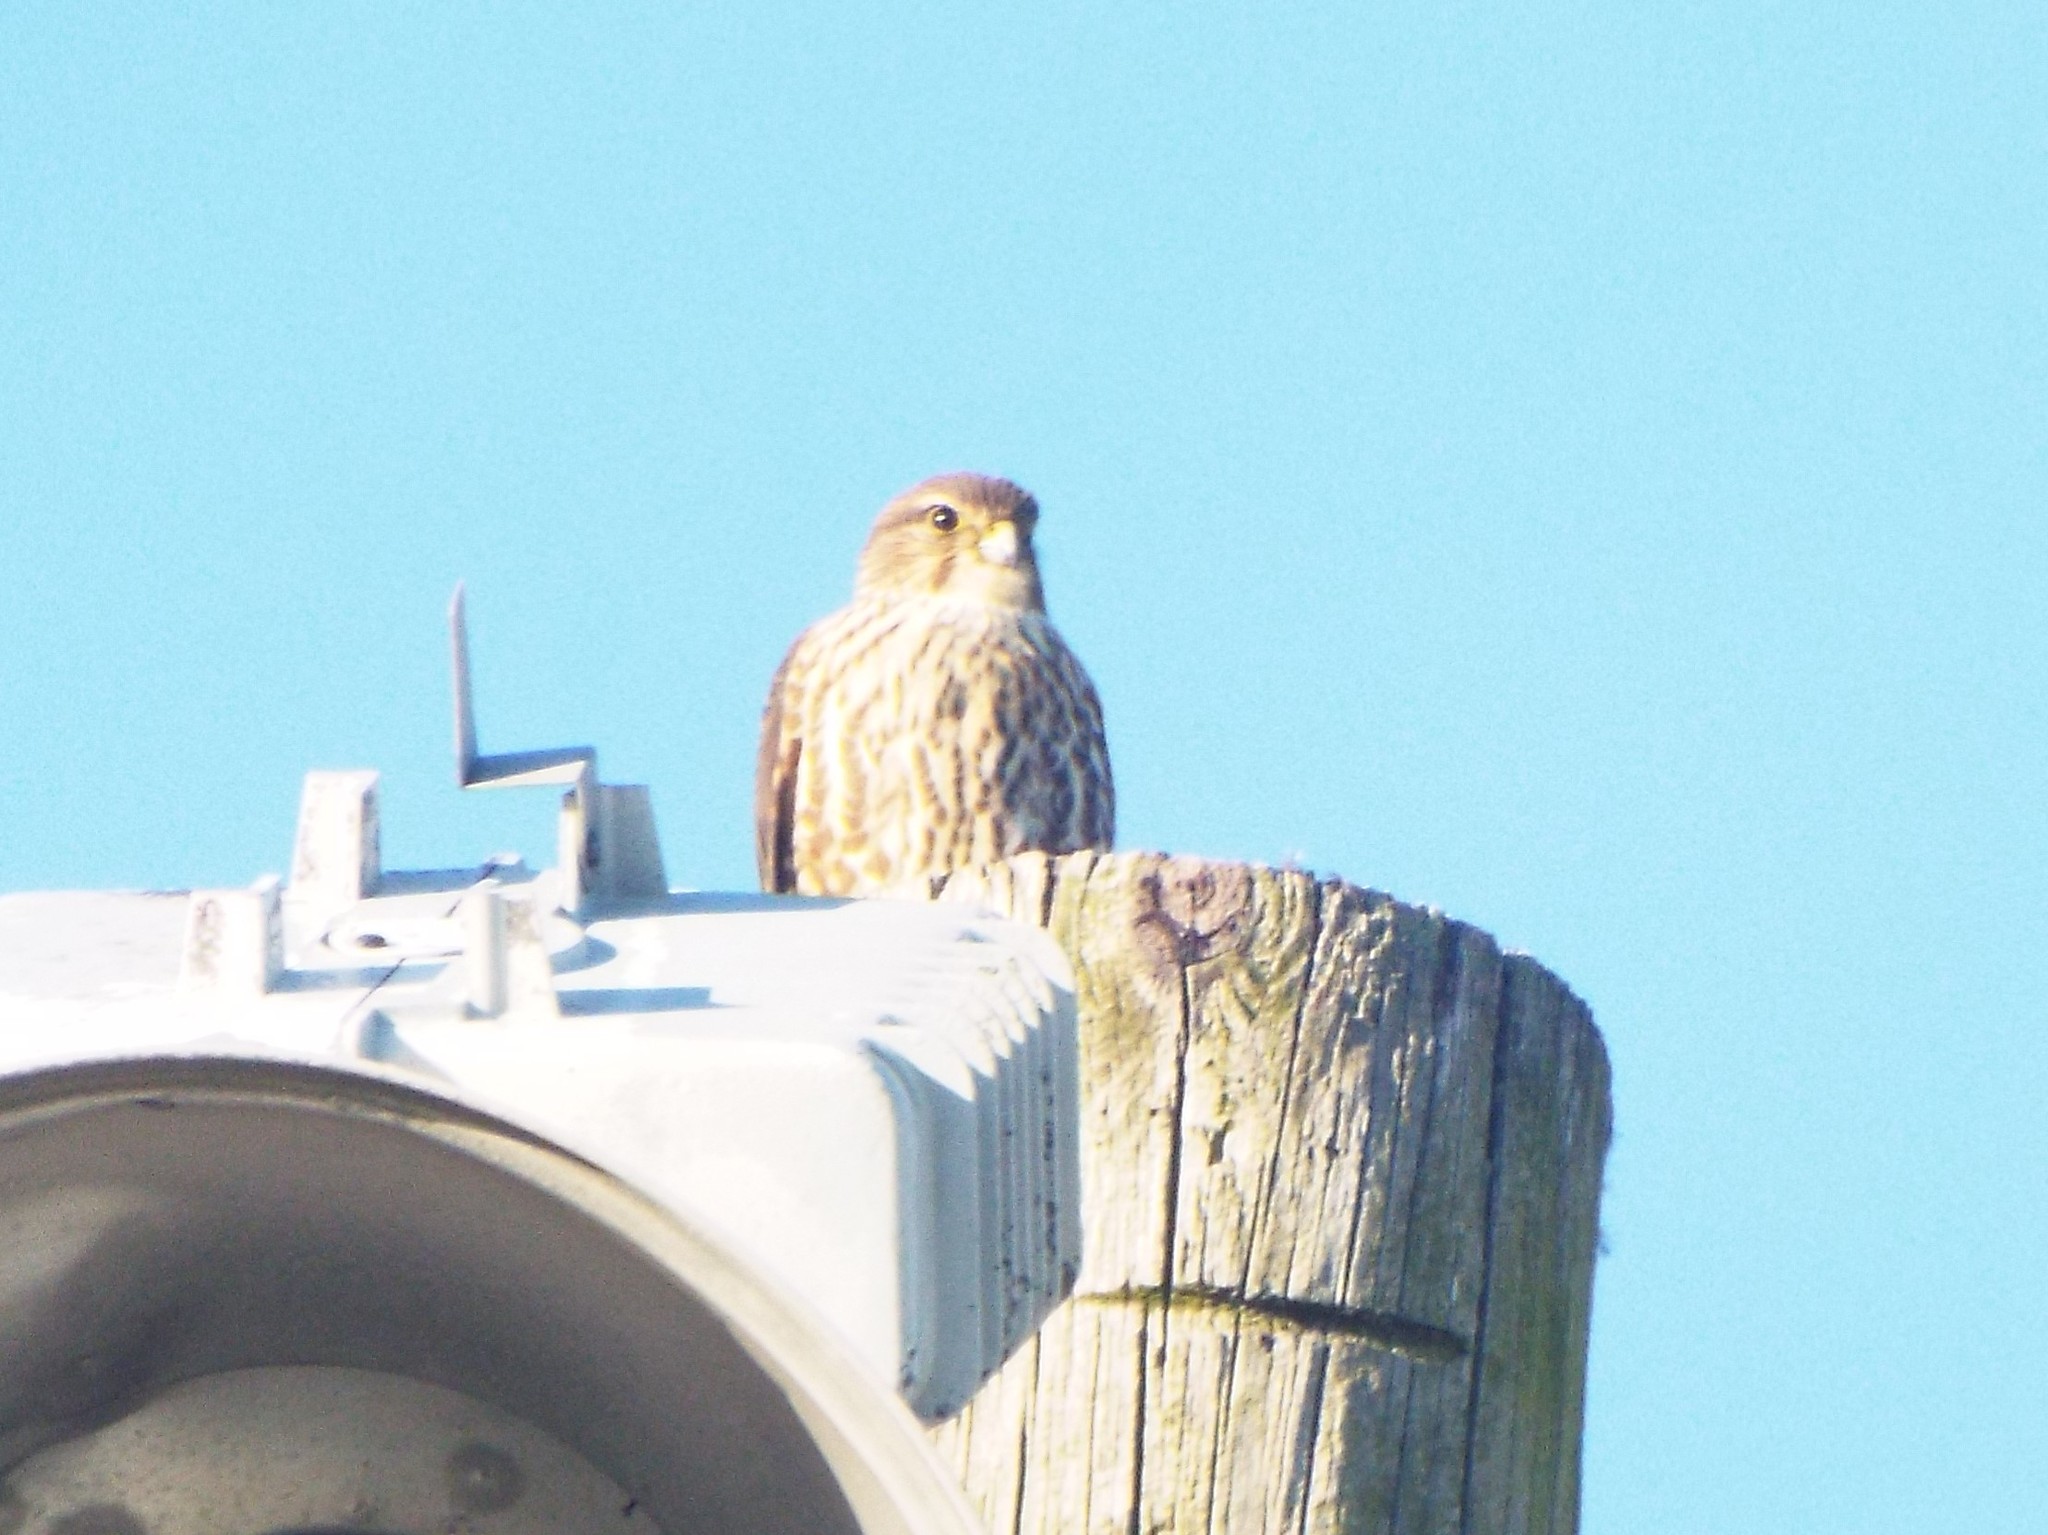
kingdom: Animalia
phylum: Chordata
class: Aves
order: Falconiformes
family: Falconidae
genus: Falco
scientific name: Falco columbarius
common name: Merlin
